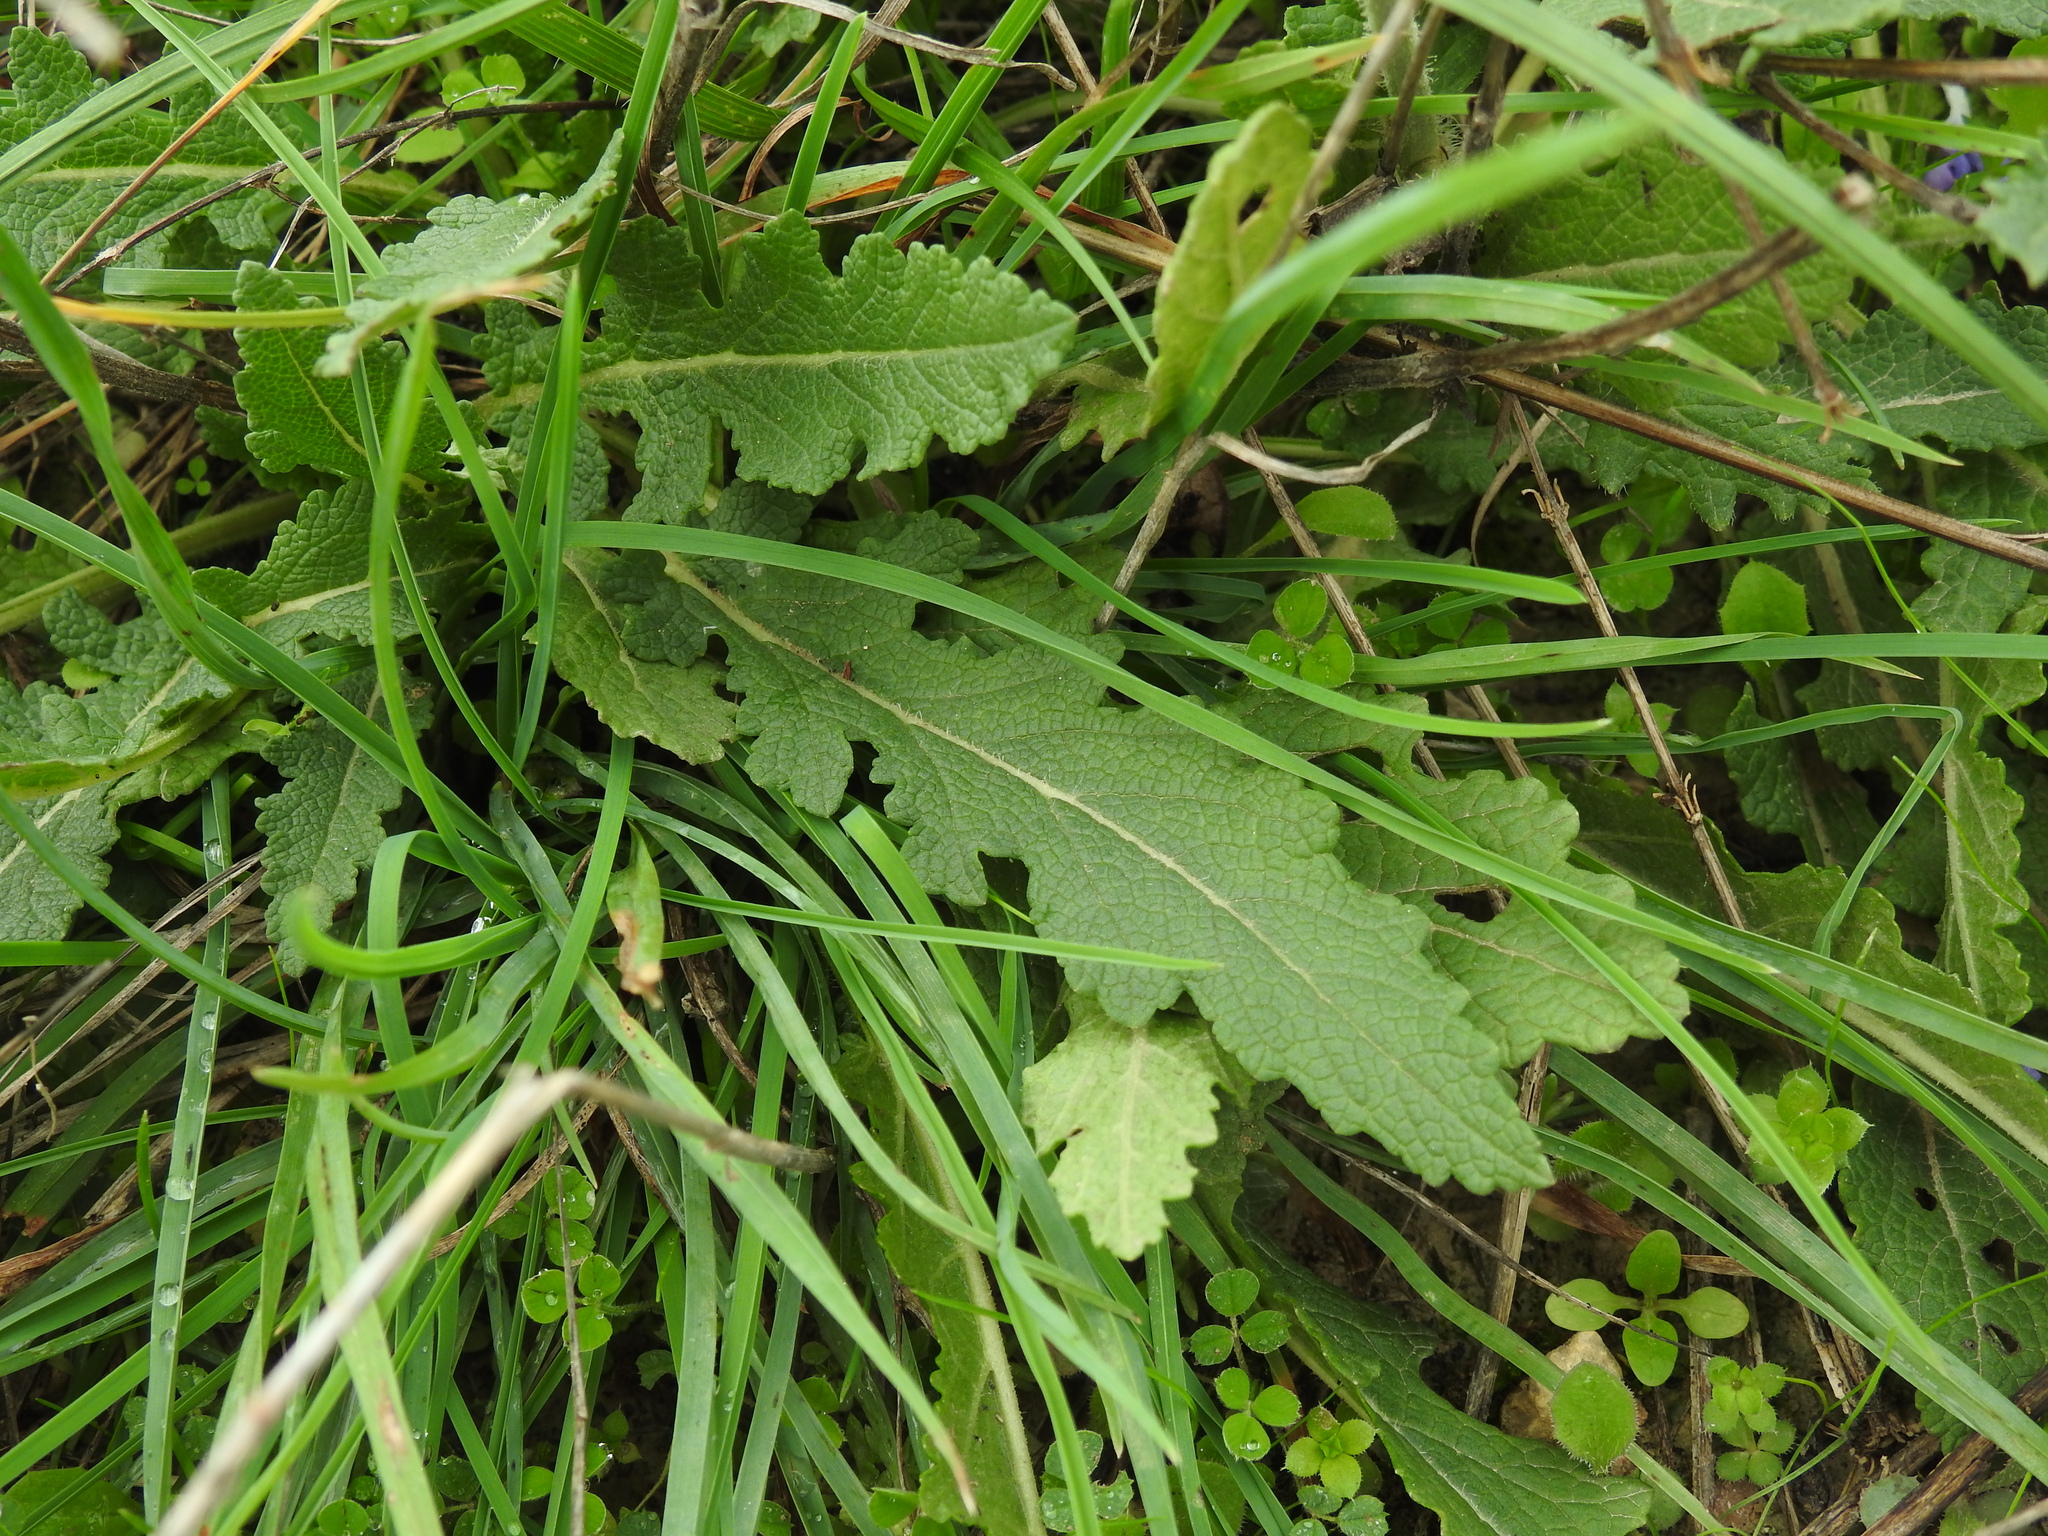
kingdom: Plantae
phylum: Tracheophyta
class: Magnoliopsida
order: Lamiales
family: Lamiaceae
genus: Salvia
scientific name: Salvia verbenaca
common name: Wild clary
